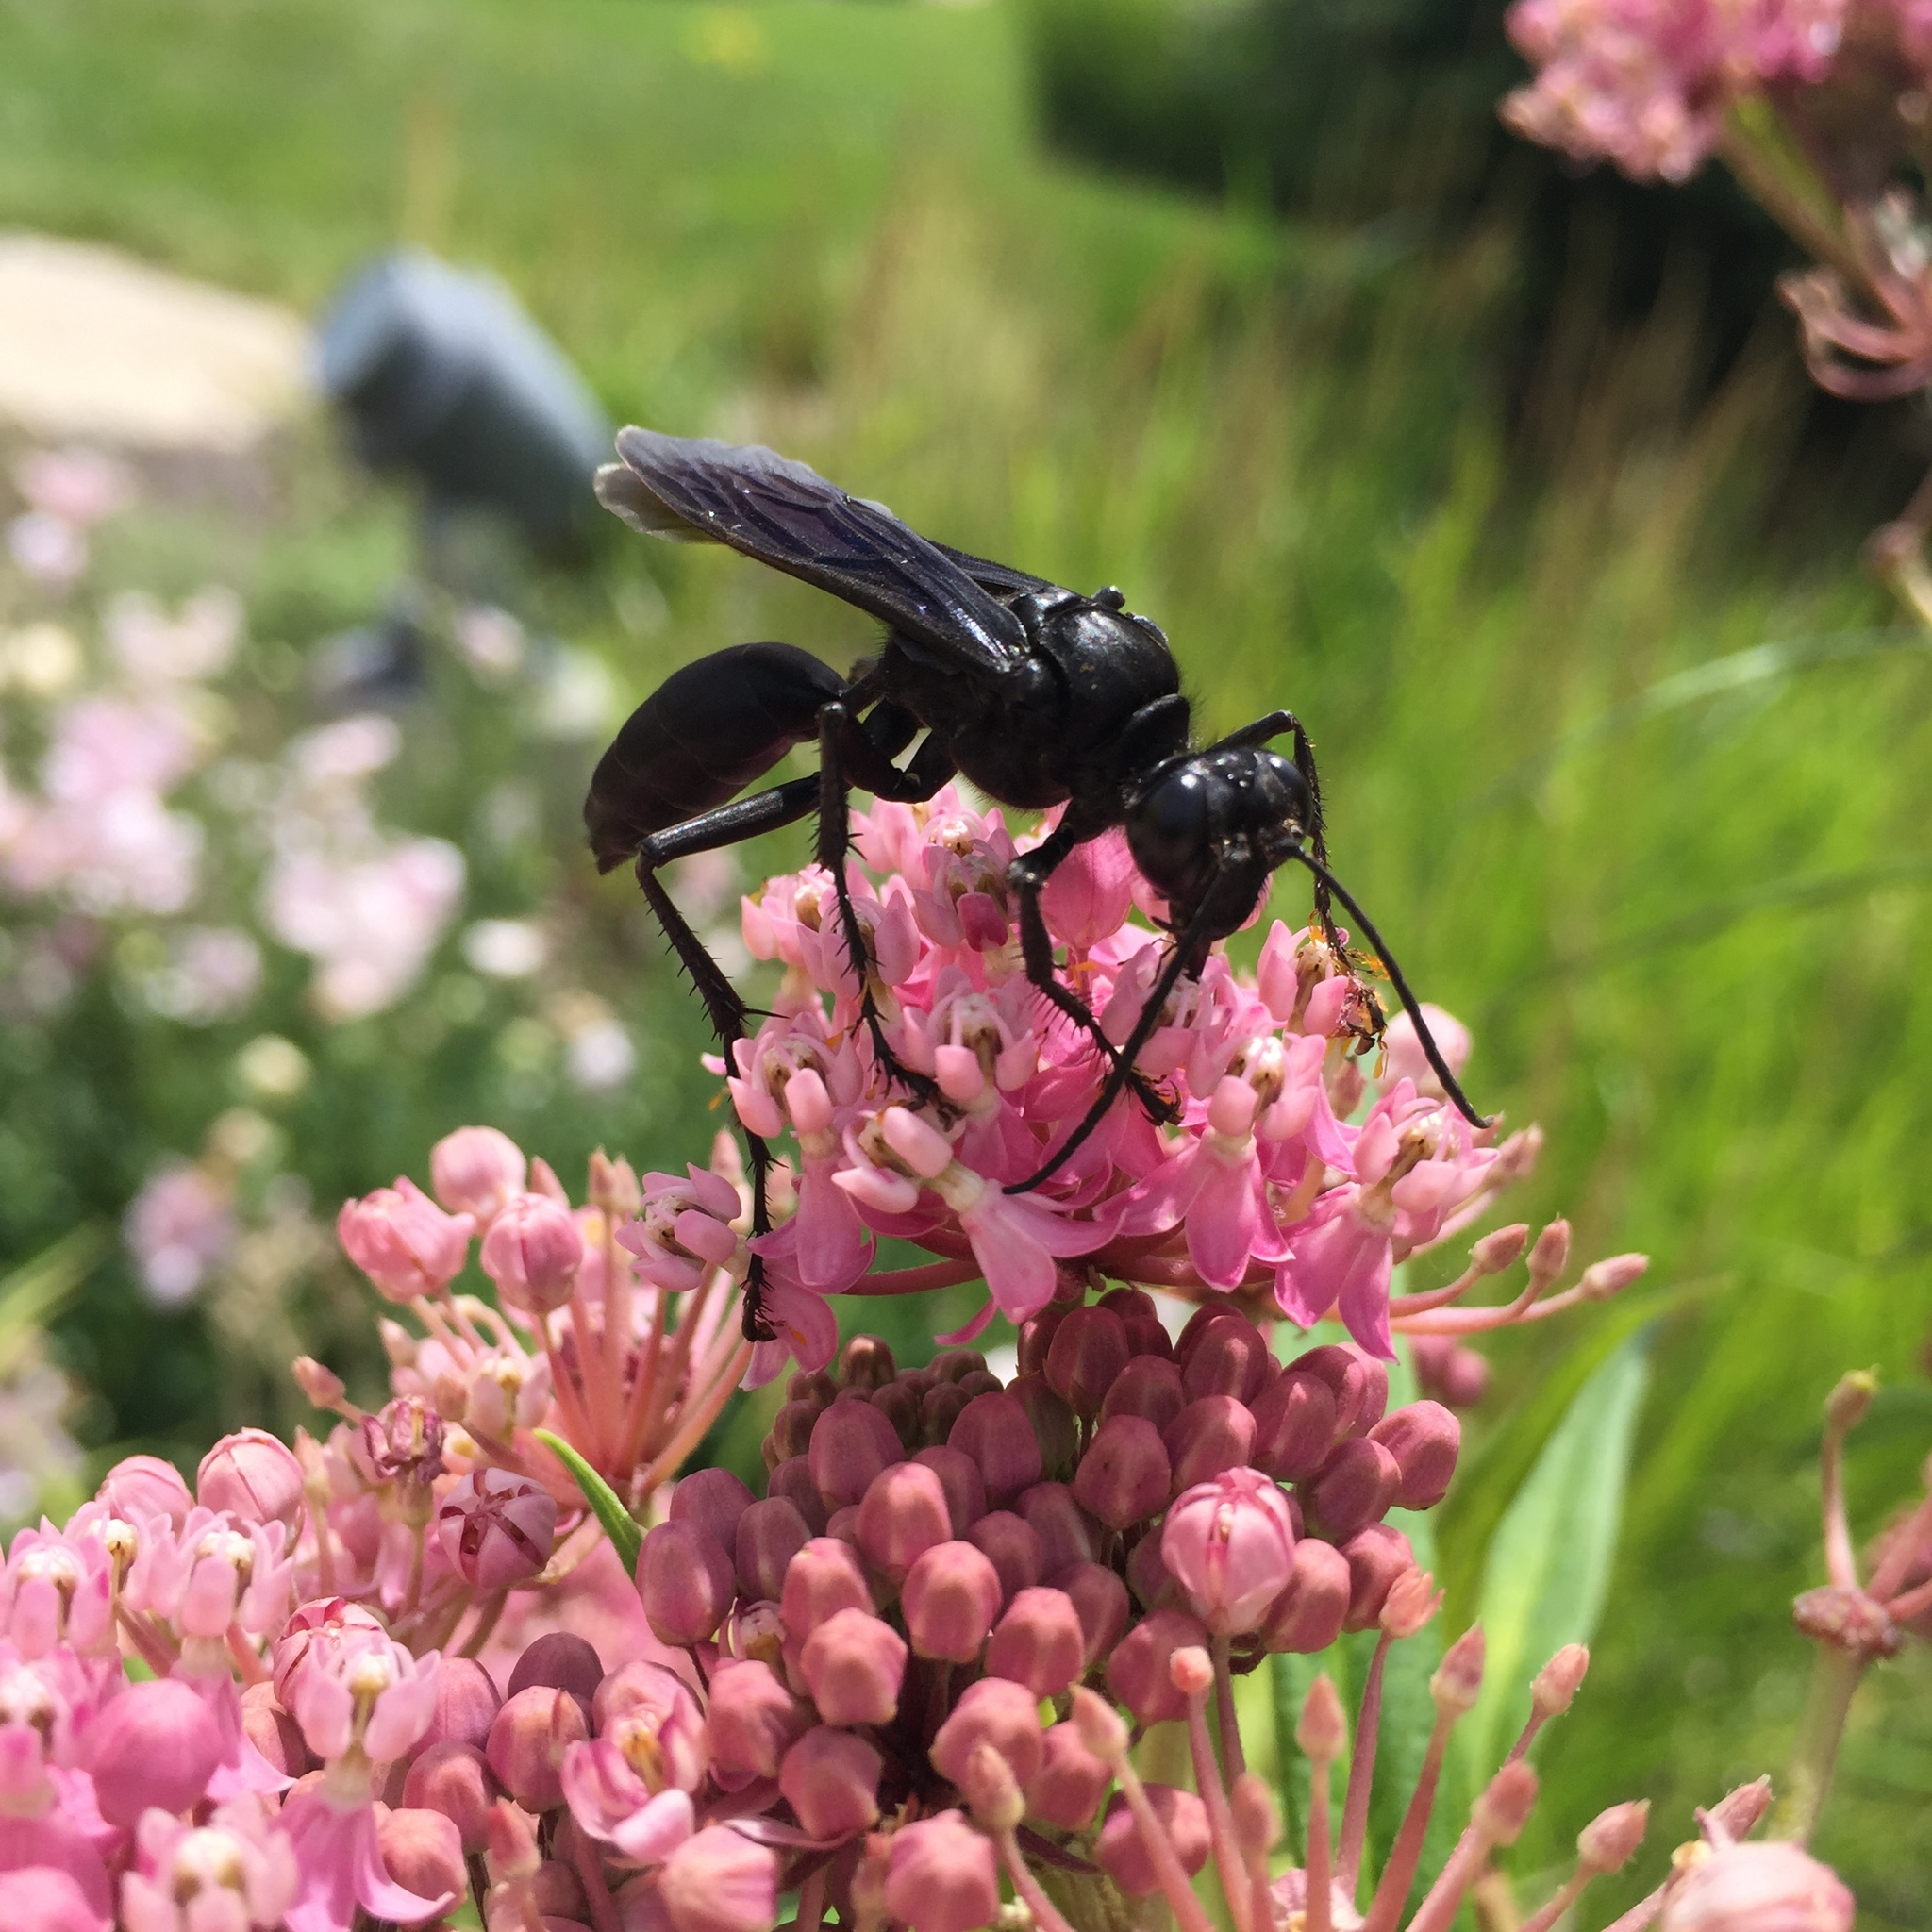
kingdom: Animalia
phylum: Arthropoda
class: Insecta
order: Hymenoptera
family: Sphecidae
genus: Sphex
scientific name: Sphex pensylvanicus
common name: Great black digger wasp
